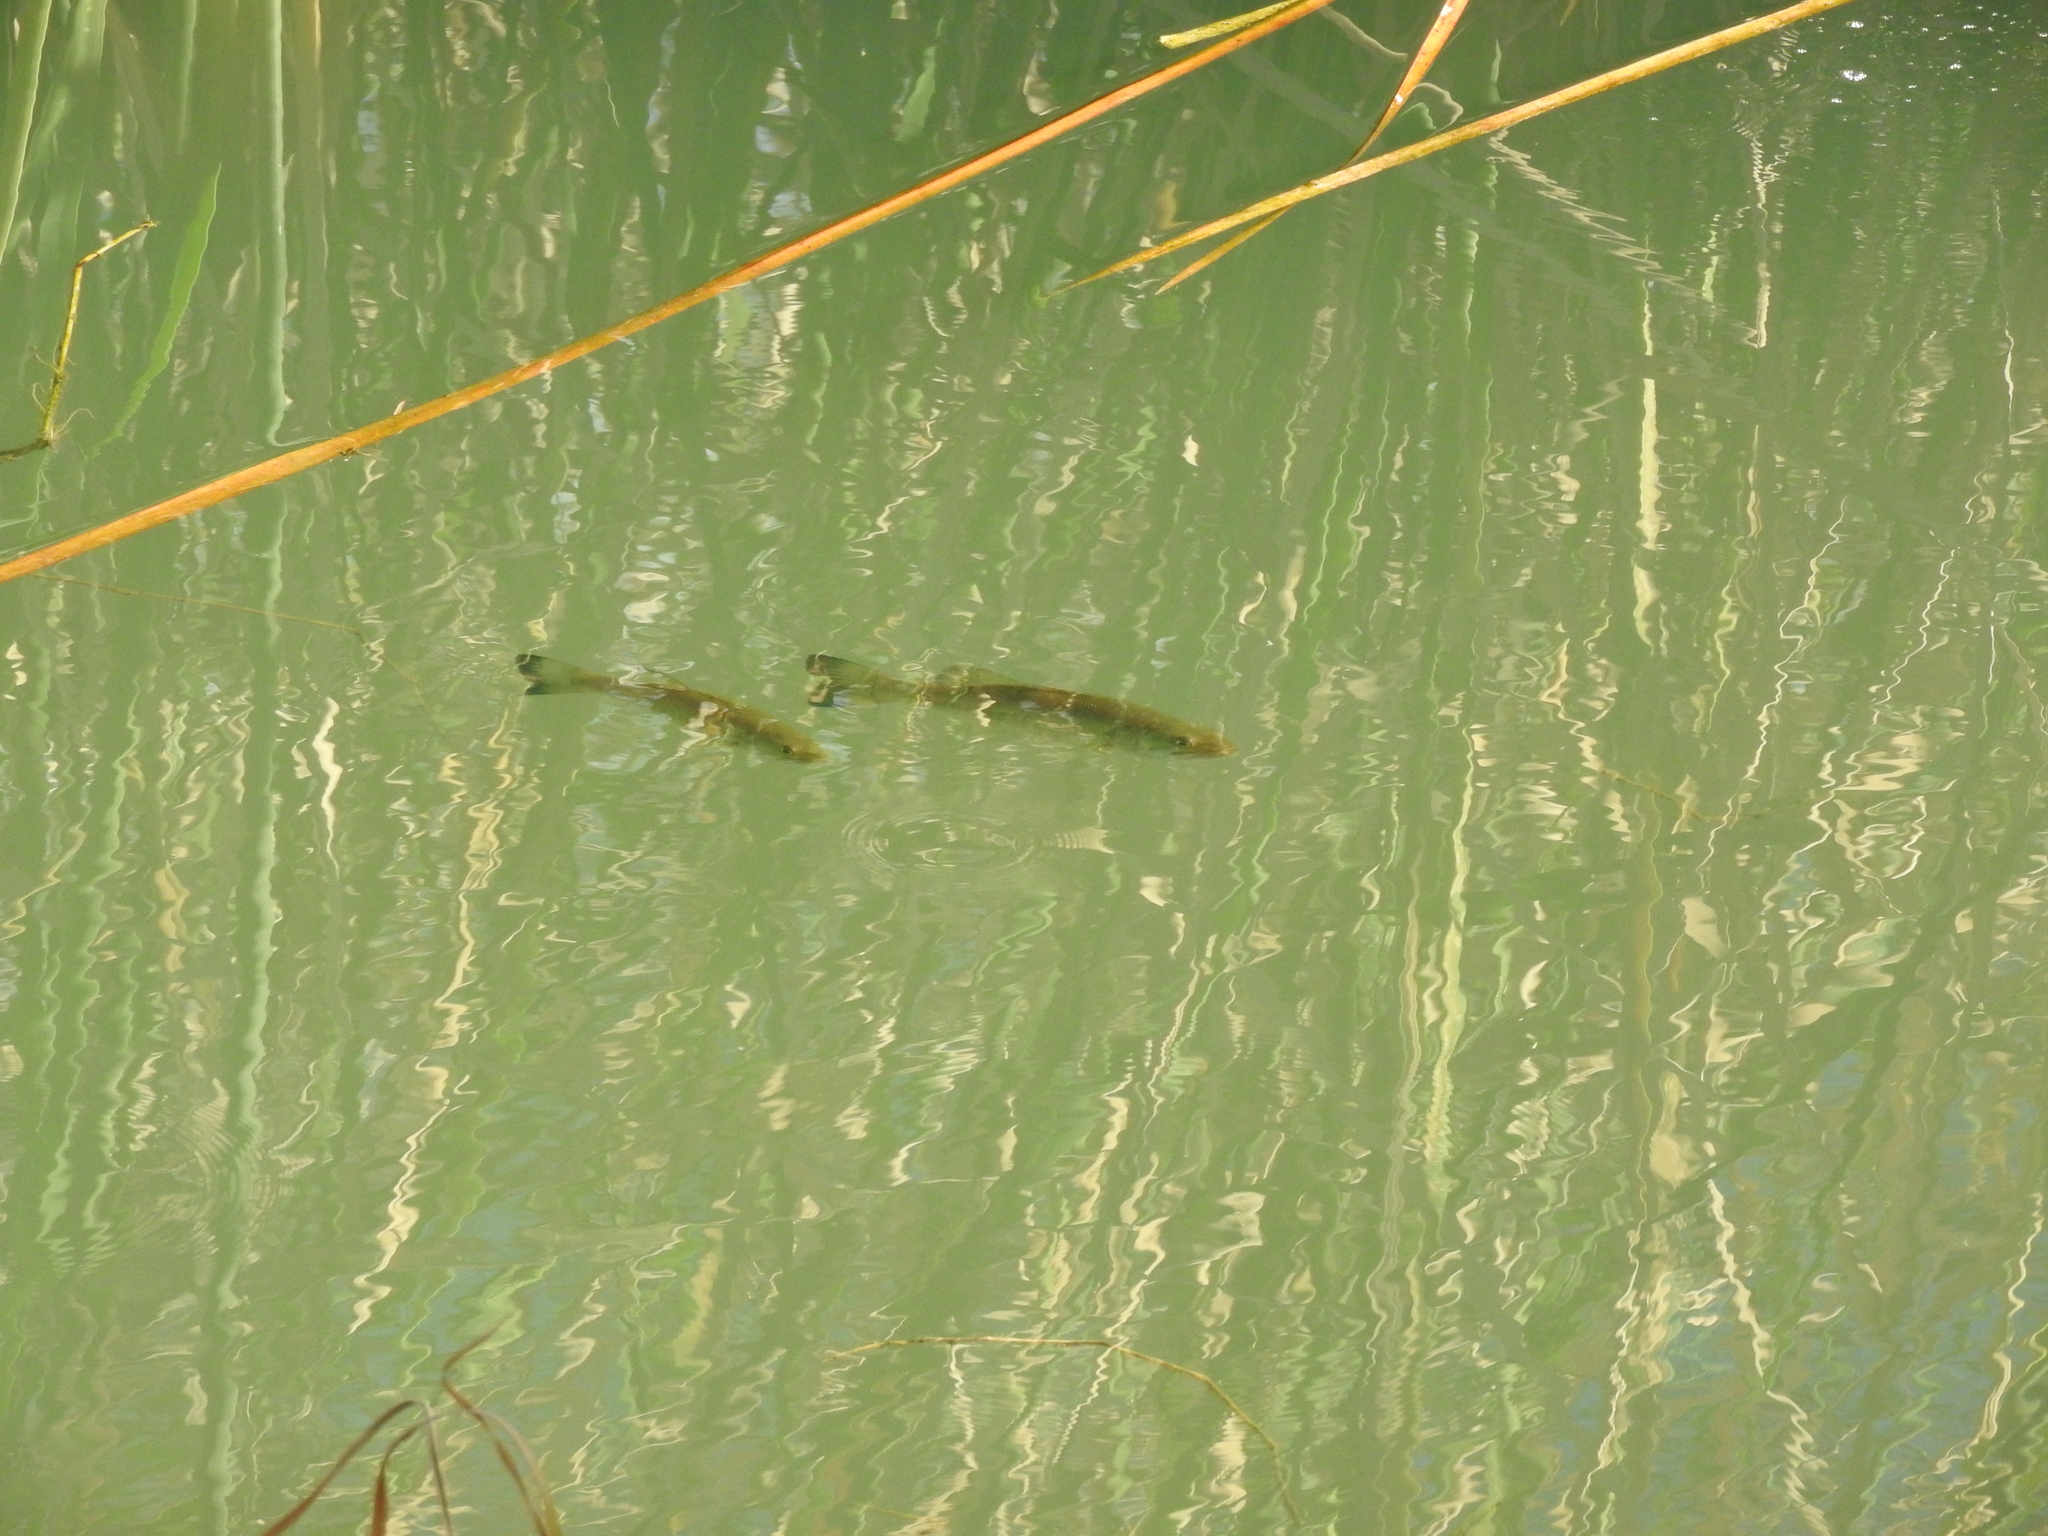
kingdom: Animalia
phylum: Chordata
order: Perciformes
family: Centrarchidae
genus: Micropterus
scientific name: Micropterus
